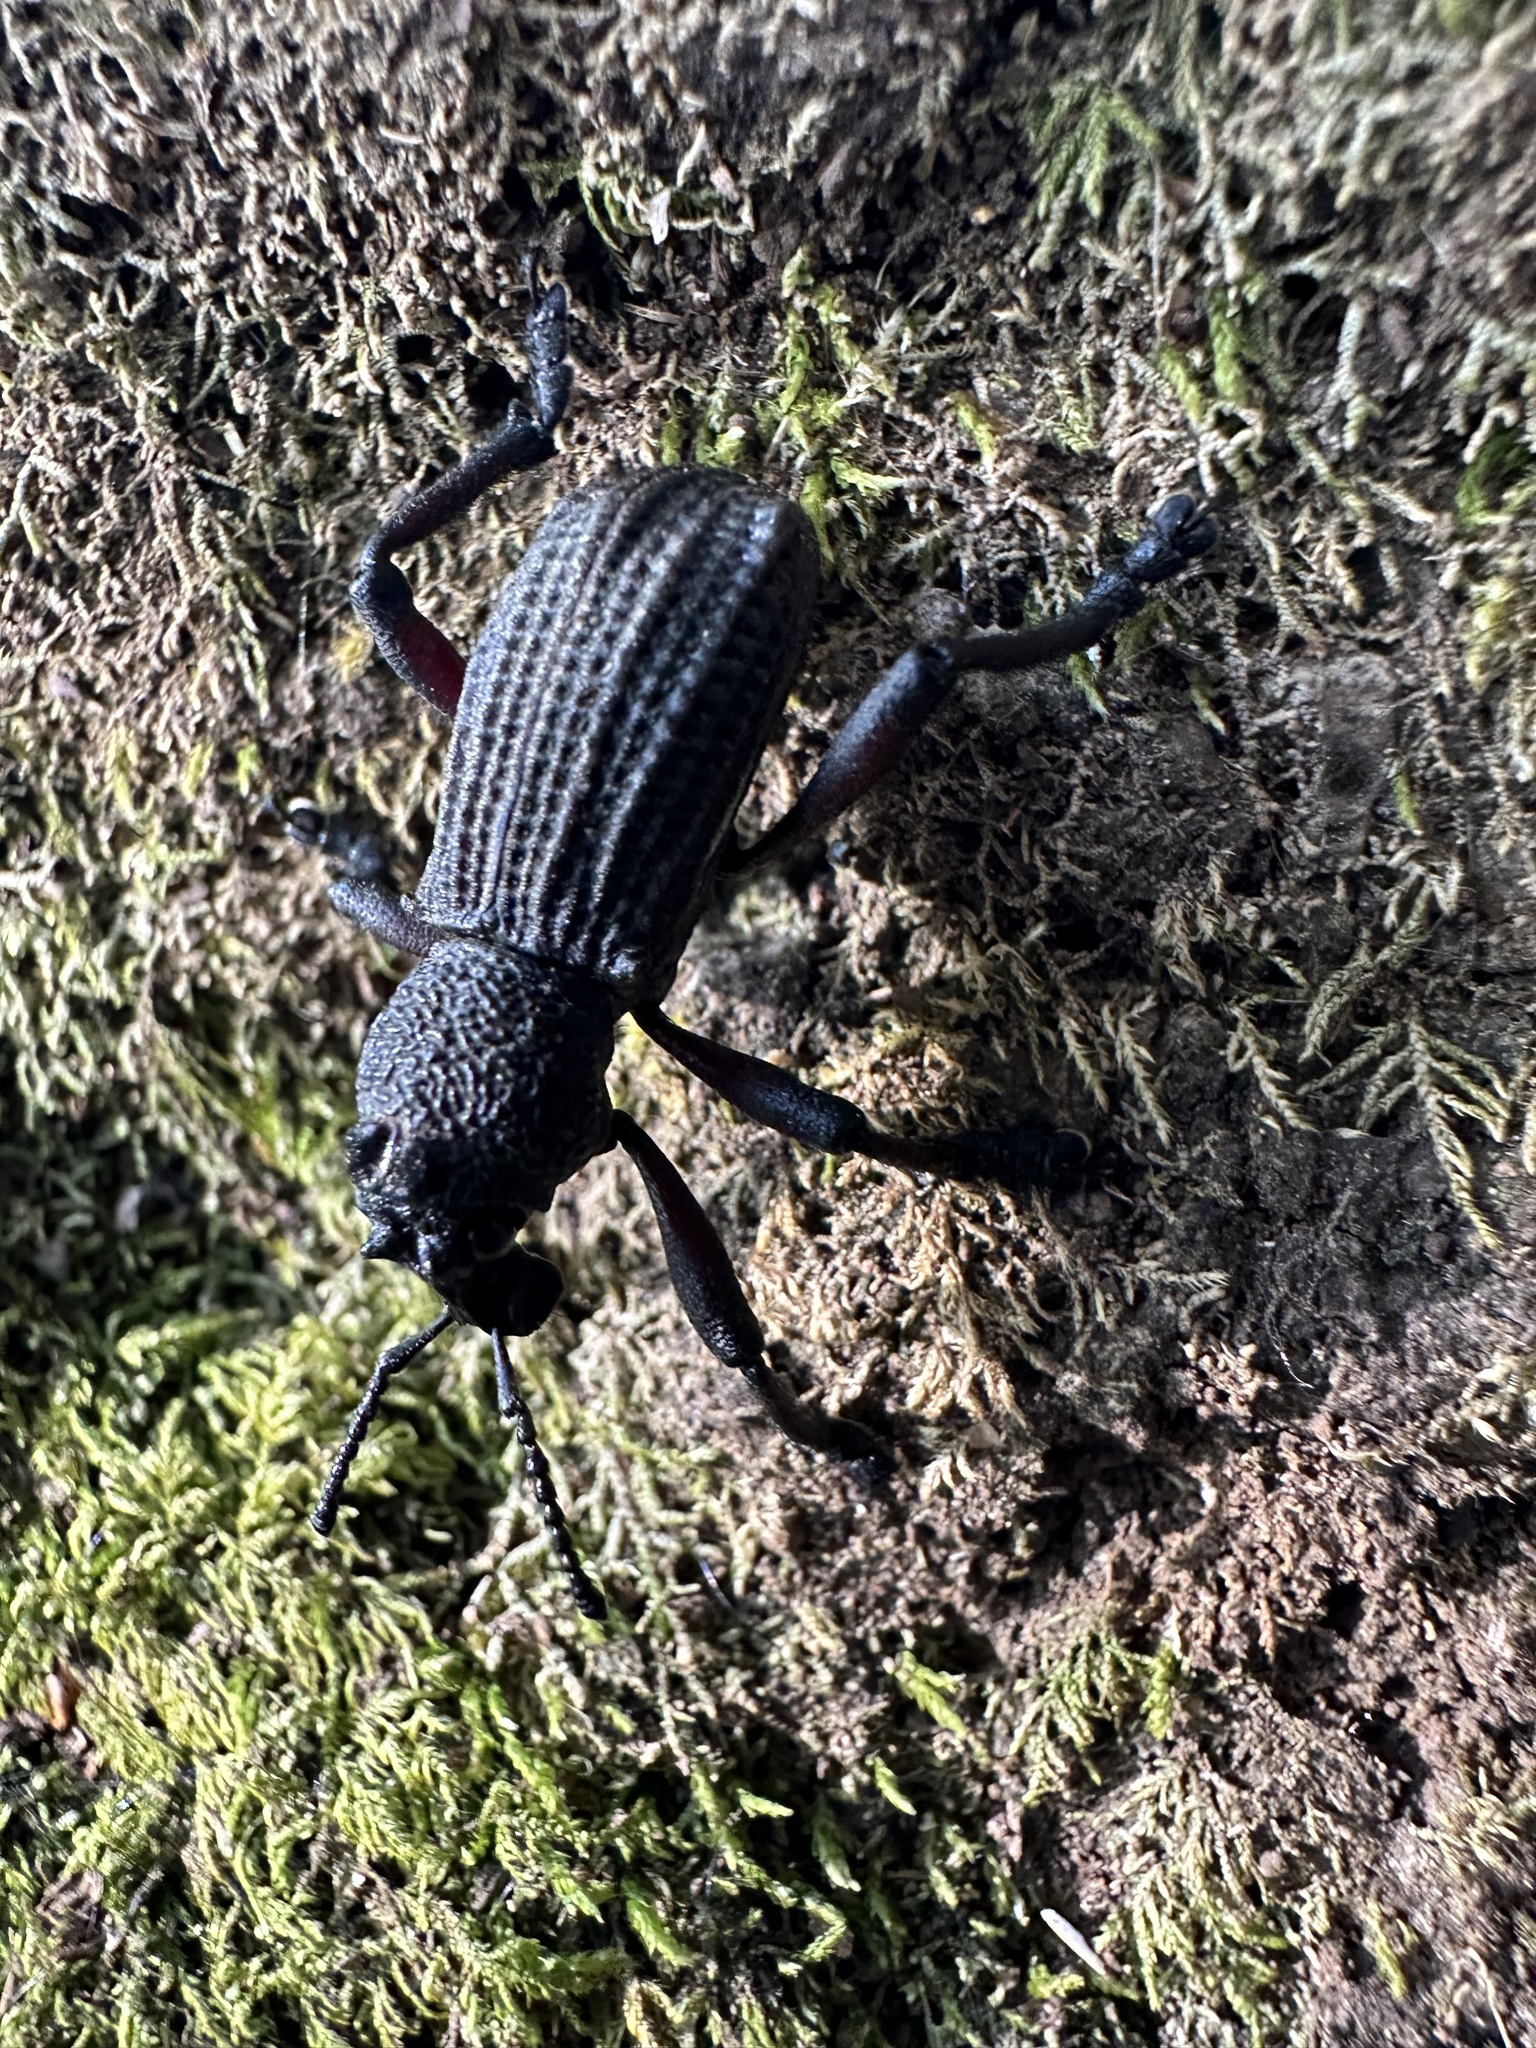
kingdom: Animalia
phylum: Arthropoda
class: Insecta
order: Coleoptera
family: Curculionidae
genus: Aegorhinus
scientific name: Aegorhinus
